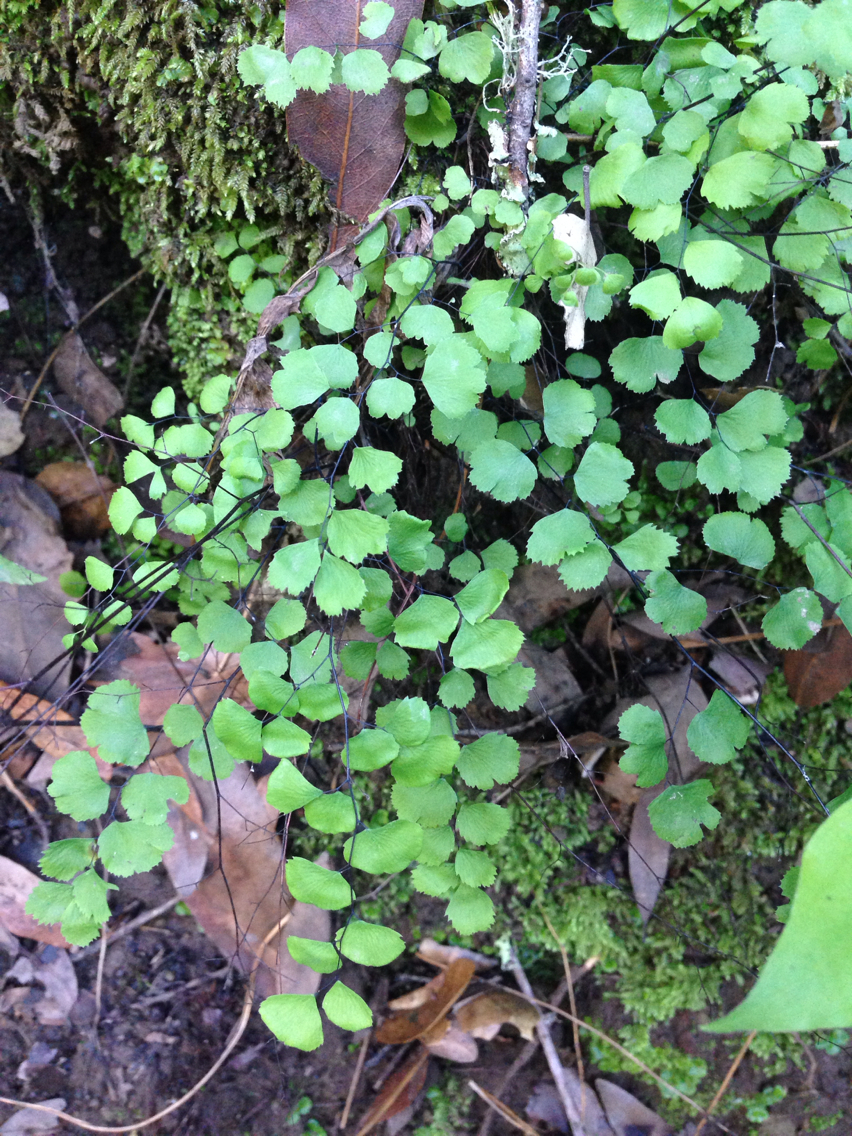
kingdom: Plantae
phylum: Tracheophyta
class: Polypodiopsida
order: Polypodiales
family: Pteridaceae
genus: Adiantum
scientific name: Adiantum jordanii
